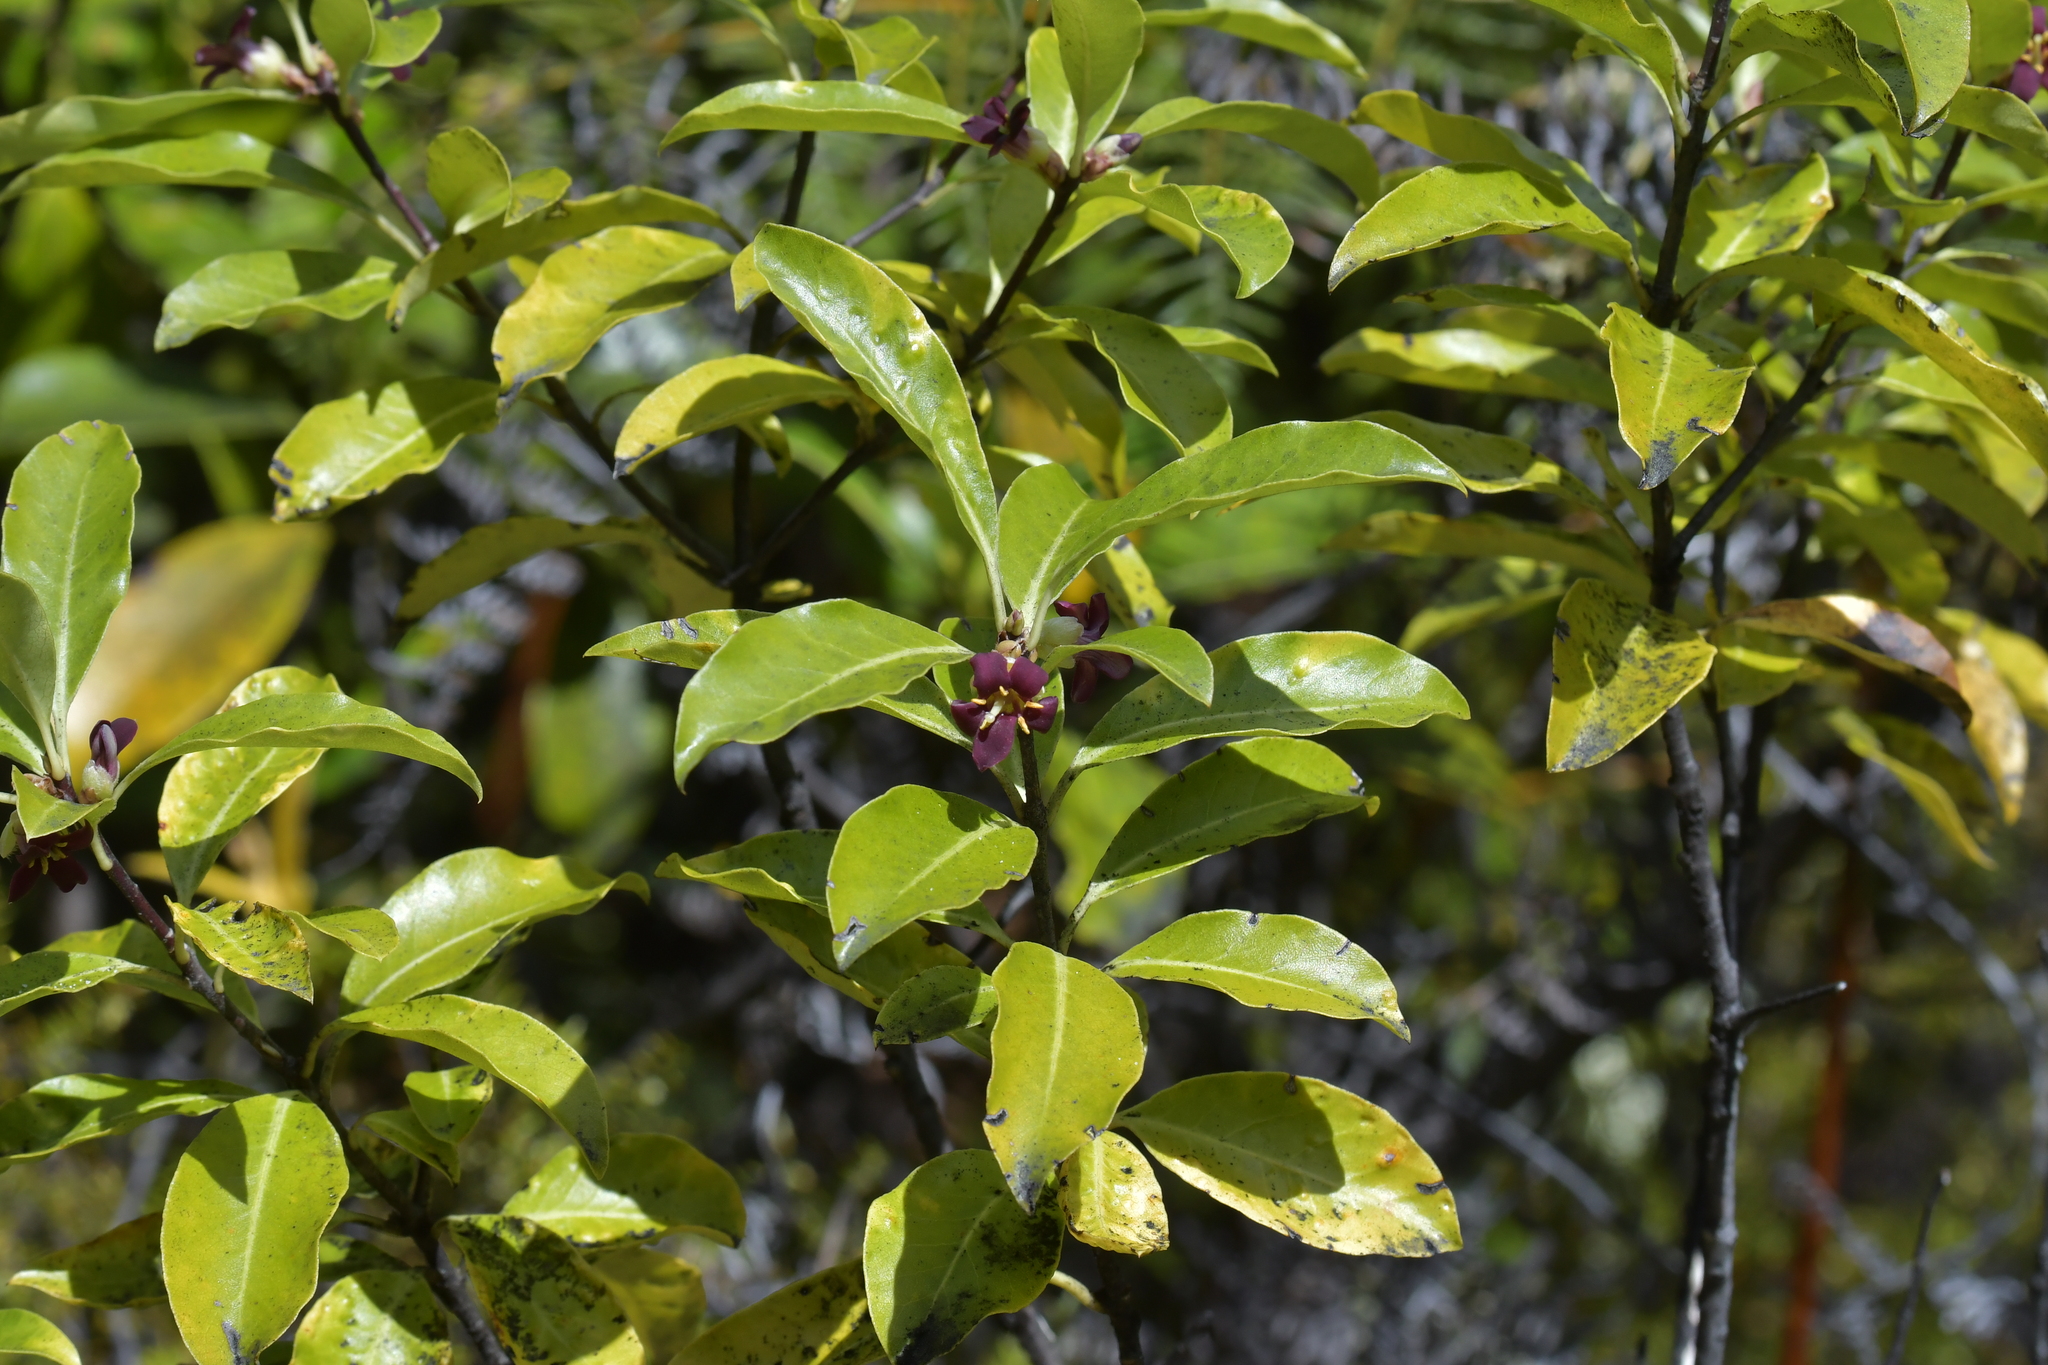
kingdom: Plantae
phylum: Tracheophyta
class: Magnoliopsida
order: Apiales
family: Pittosporaceae
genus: Pittosporum
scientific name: Pittosporum colensoi
